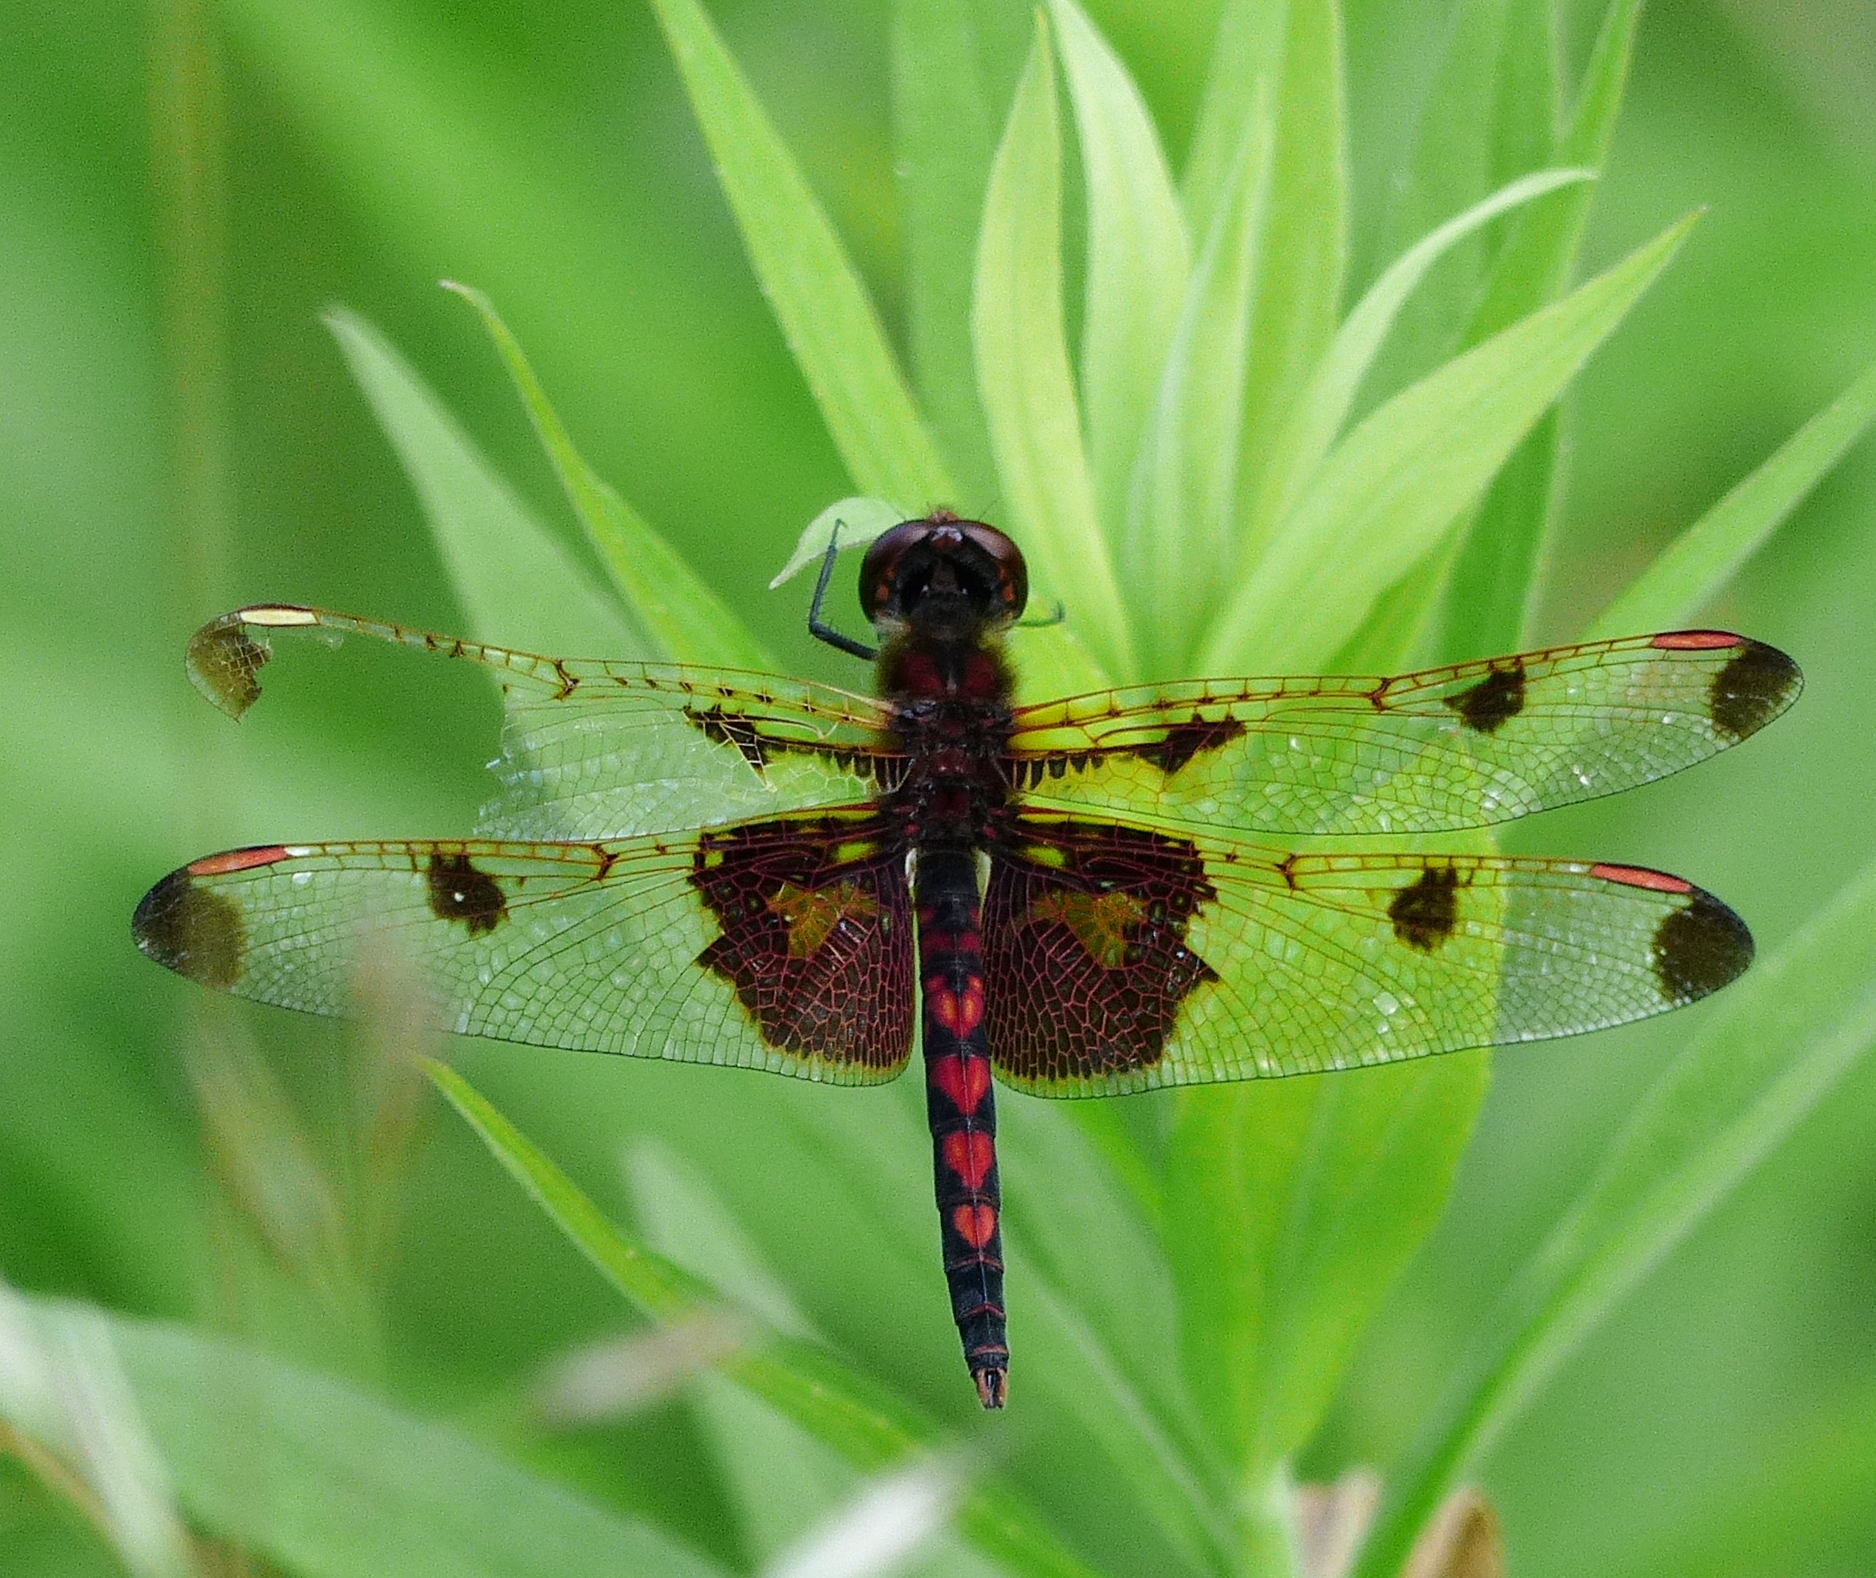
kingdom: Animalia
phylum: Arthropoda
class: Insecta
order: Odonata
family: Libellulidae
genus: Celithemis
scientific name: Celithemis elisa
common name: Calico pennant
